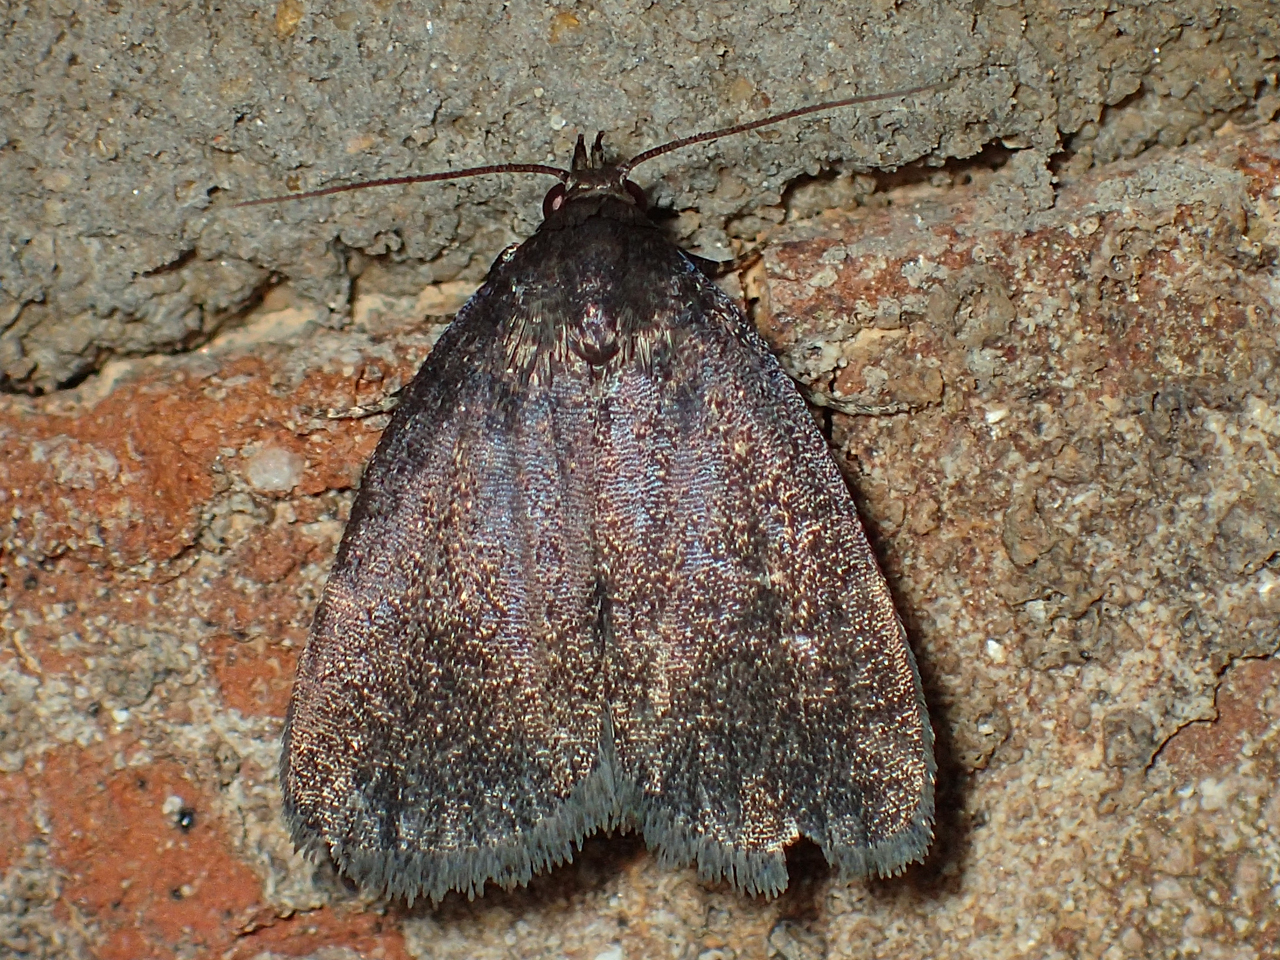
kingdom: Animalia
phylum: Arthropoda
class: Insecta
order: Lepidoptera
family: Erebidae
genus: Idia
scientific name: Idia rotundalis
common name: Rotund idia moth
